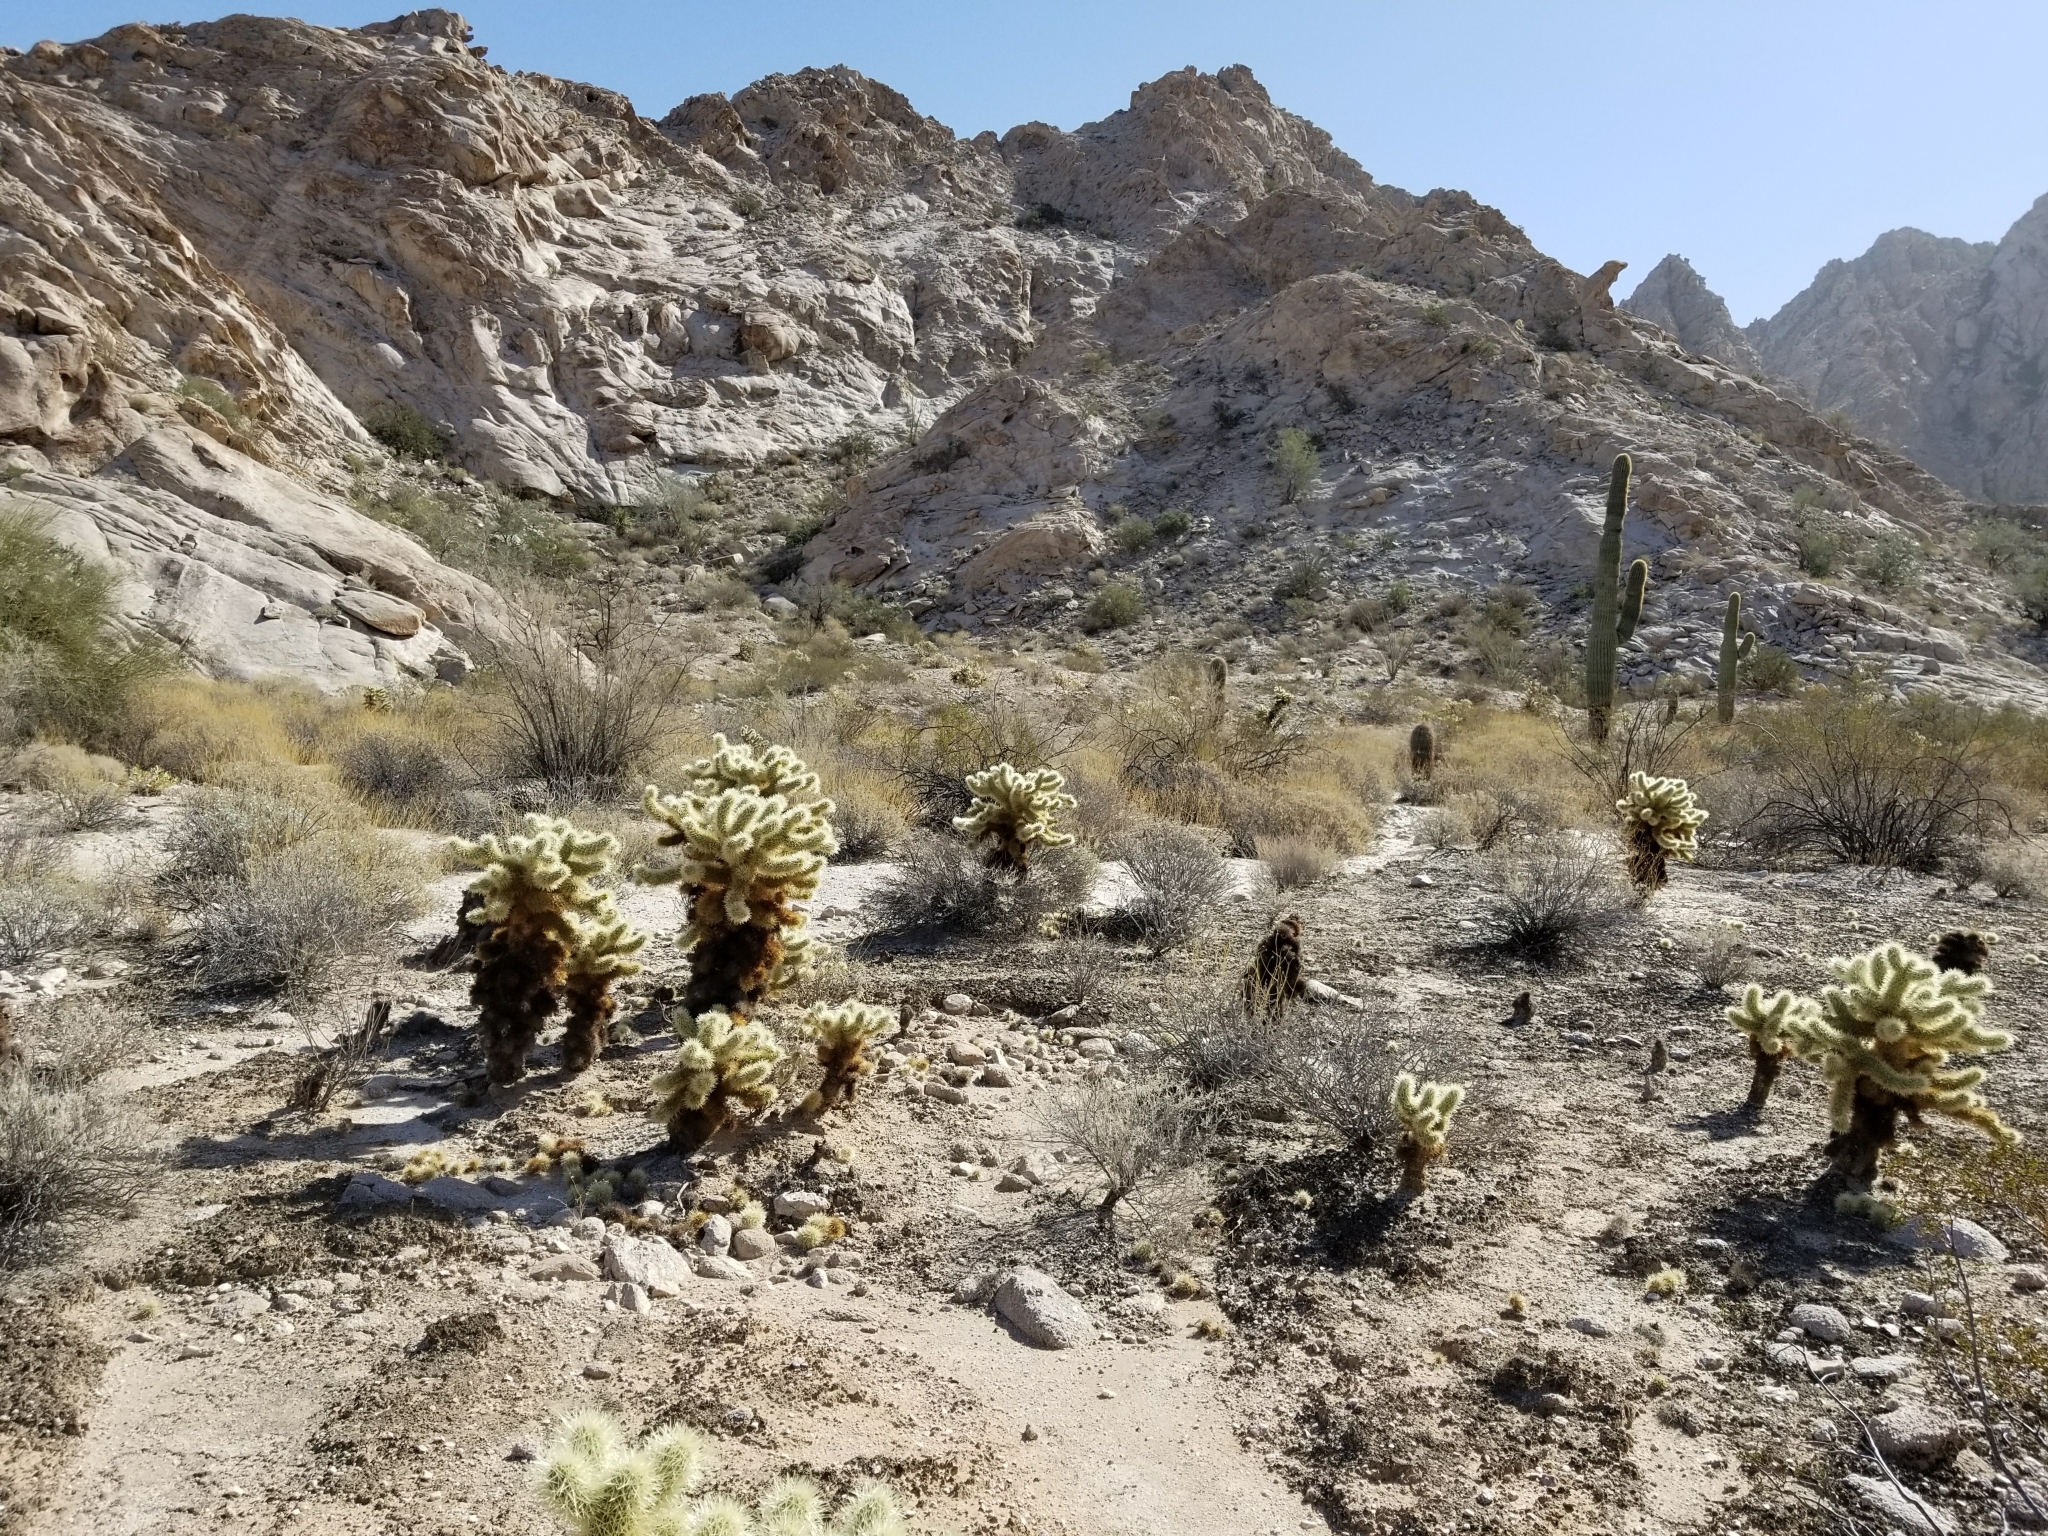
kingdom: Plantae
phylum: Tracheophyta
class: Magnoliopsida
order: Caryophyllales
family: Cactaceae
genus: Cylindropuntia
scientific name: Cylindropuntia fosbergii
